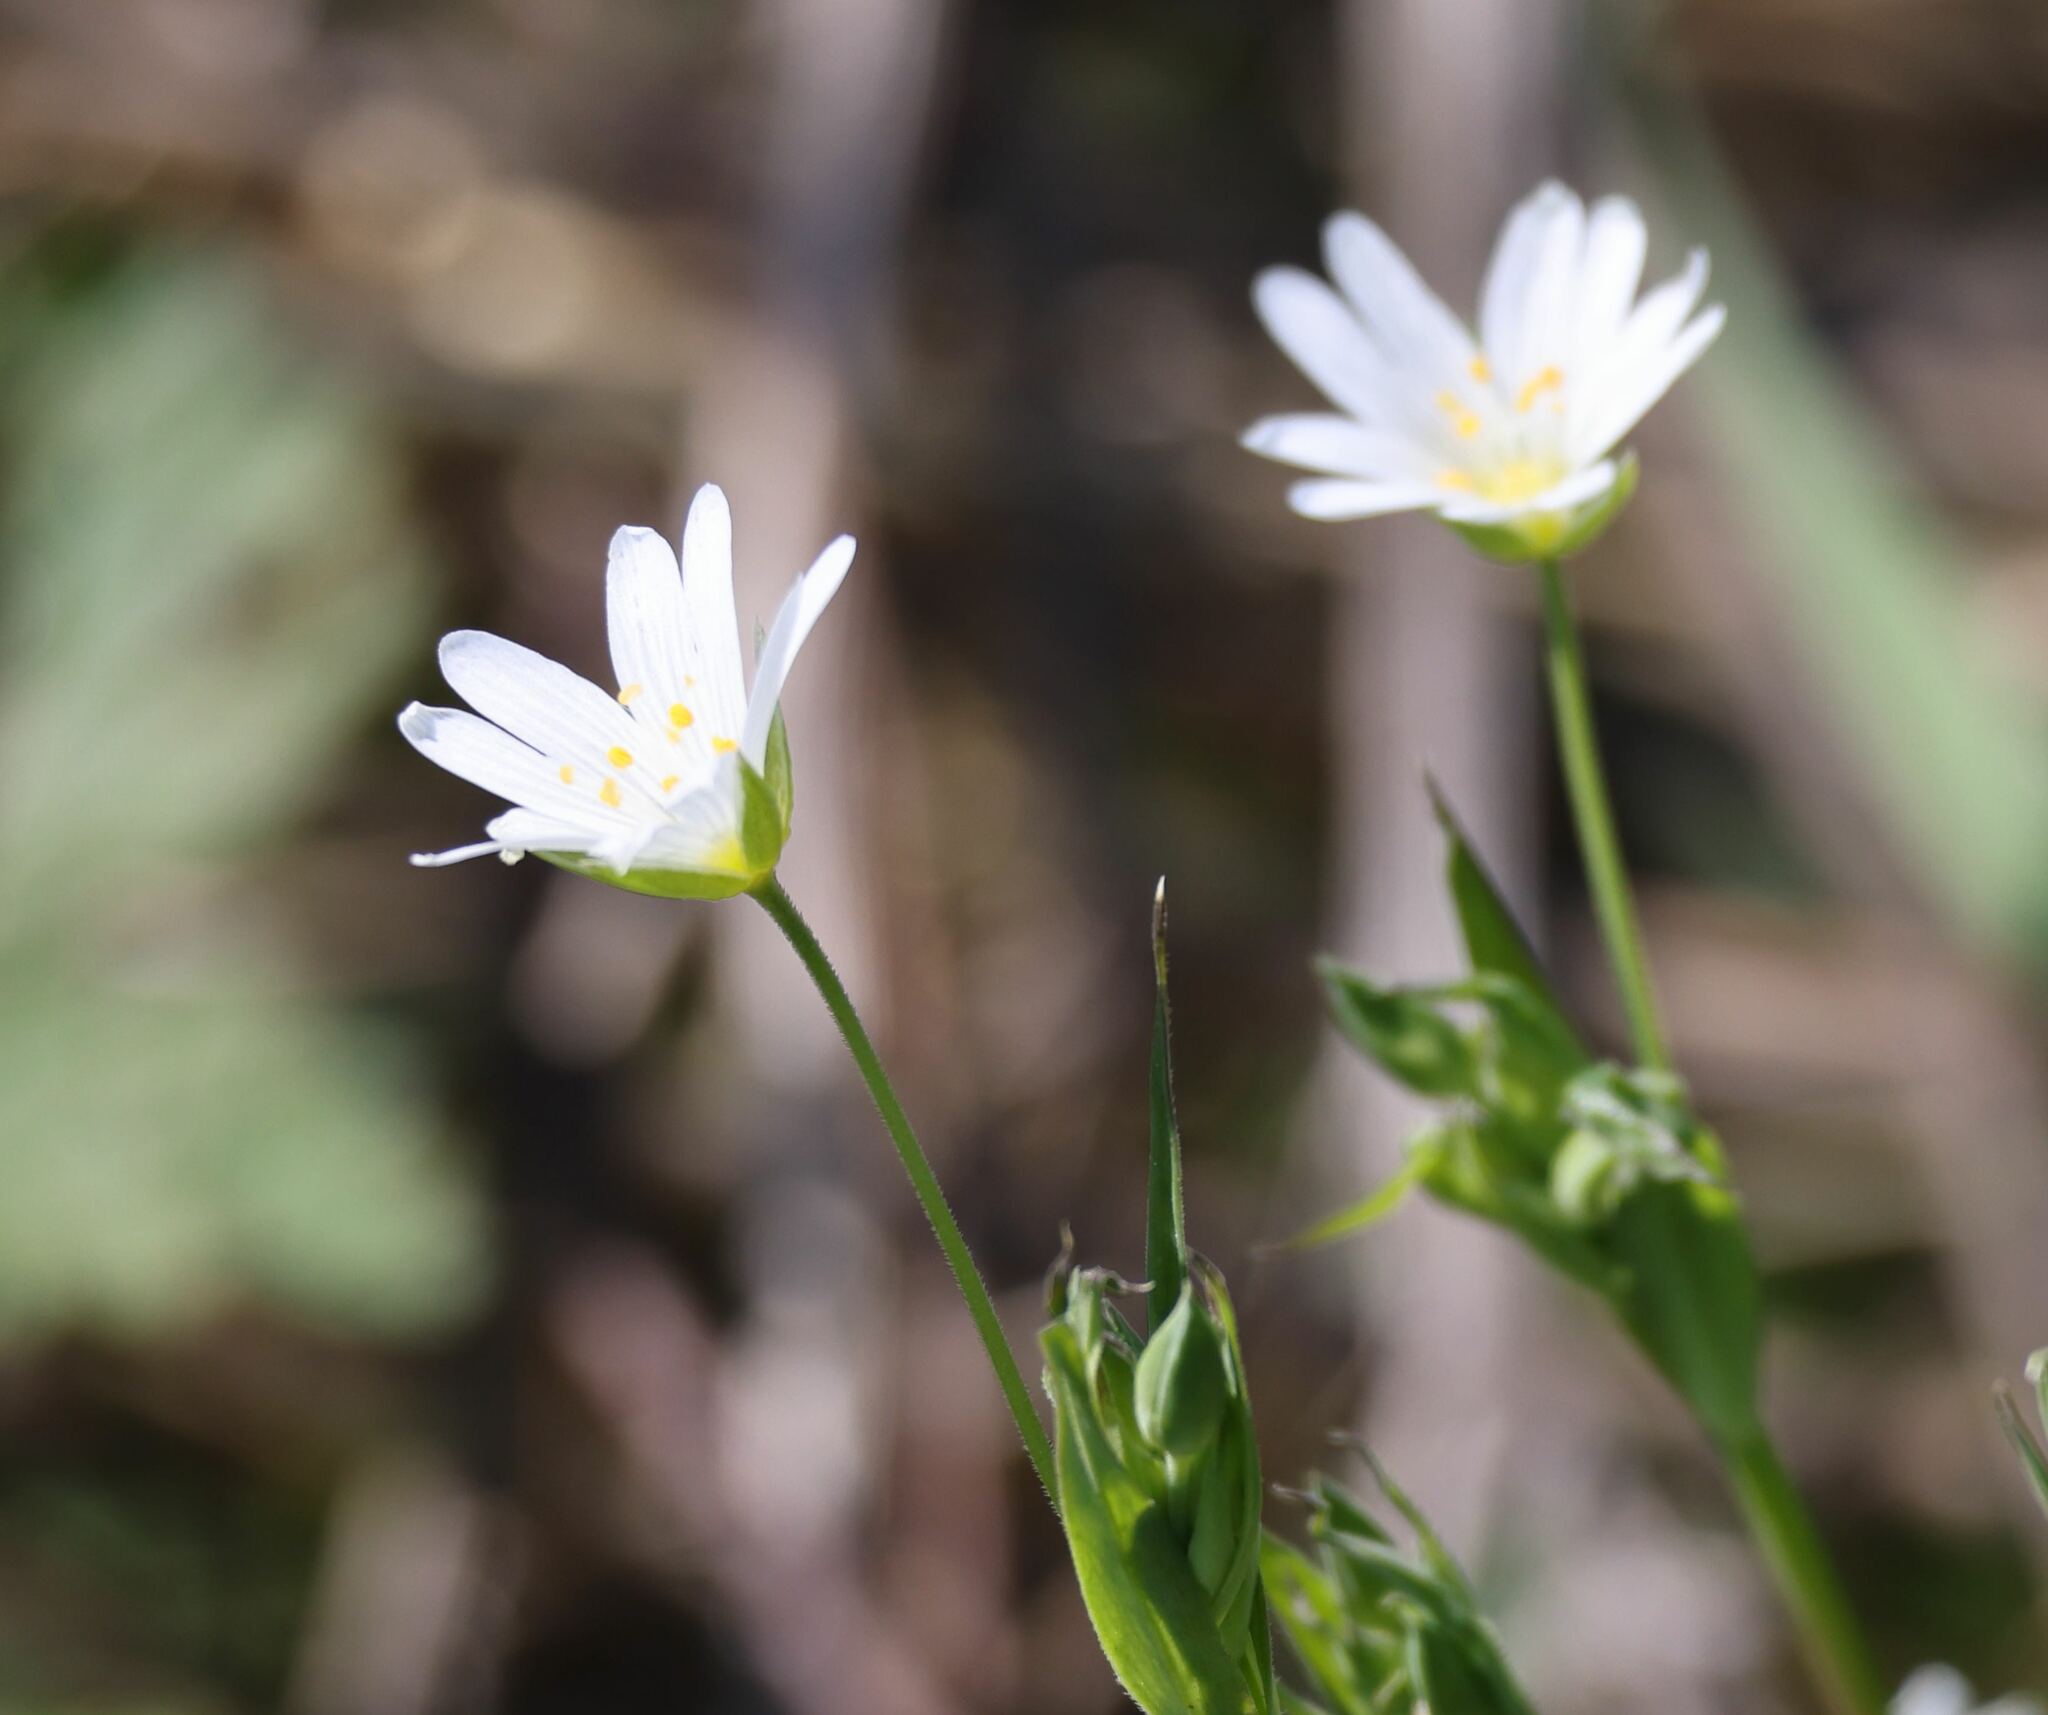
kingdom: Plantae
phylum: Tracheophyta
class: Magnoliopsida
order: Caryophyllales
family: Caryophyllaceae
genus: Rabelera
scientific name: Rabelera holostea
